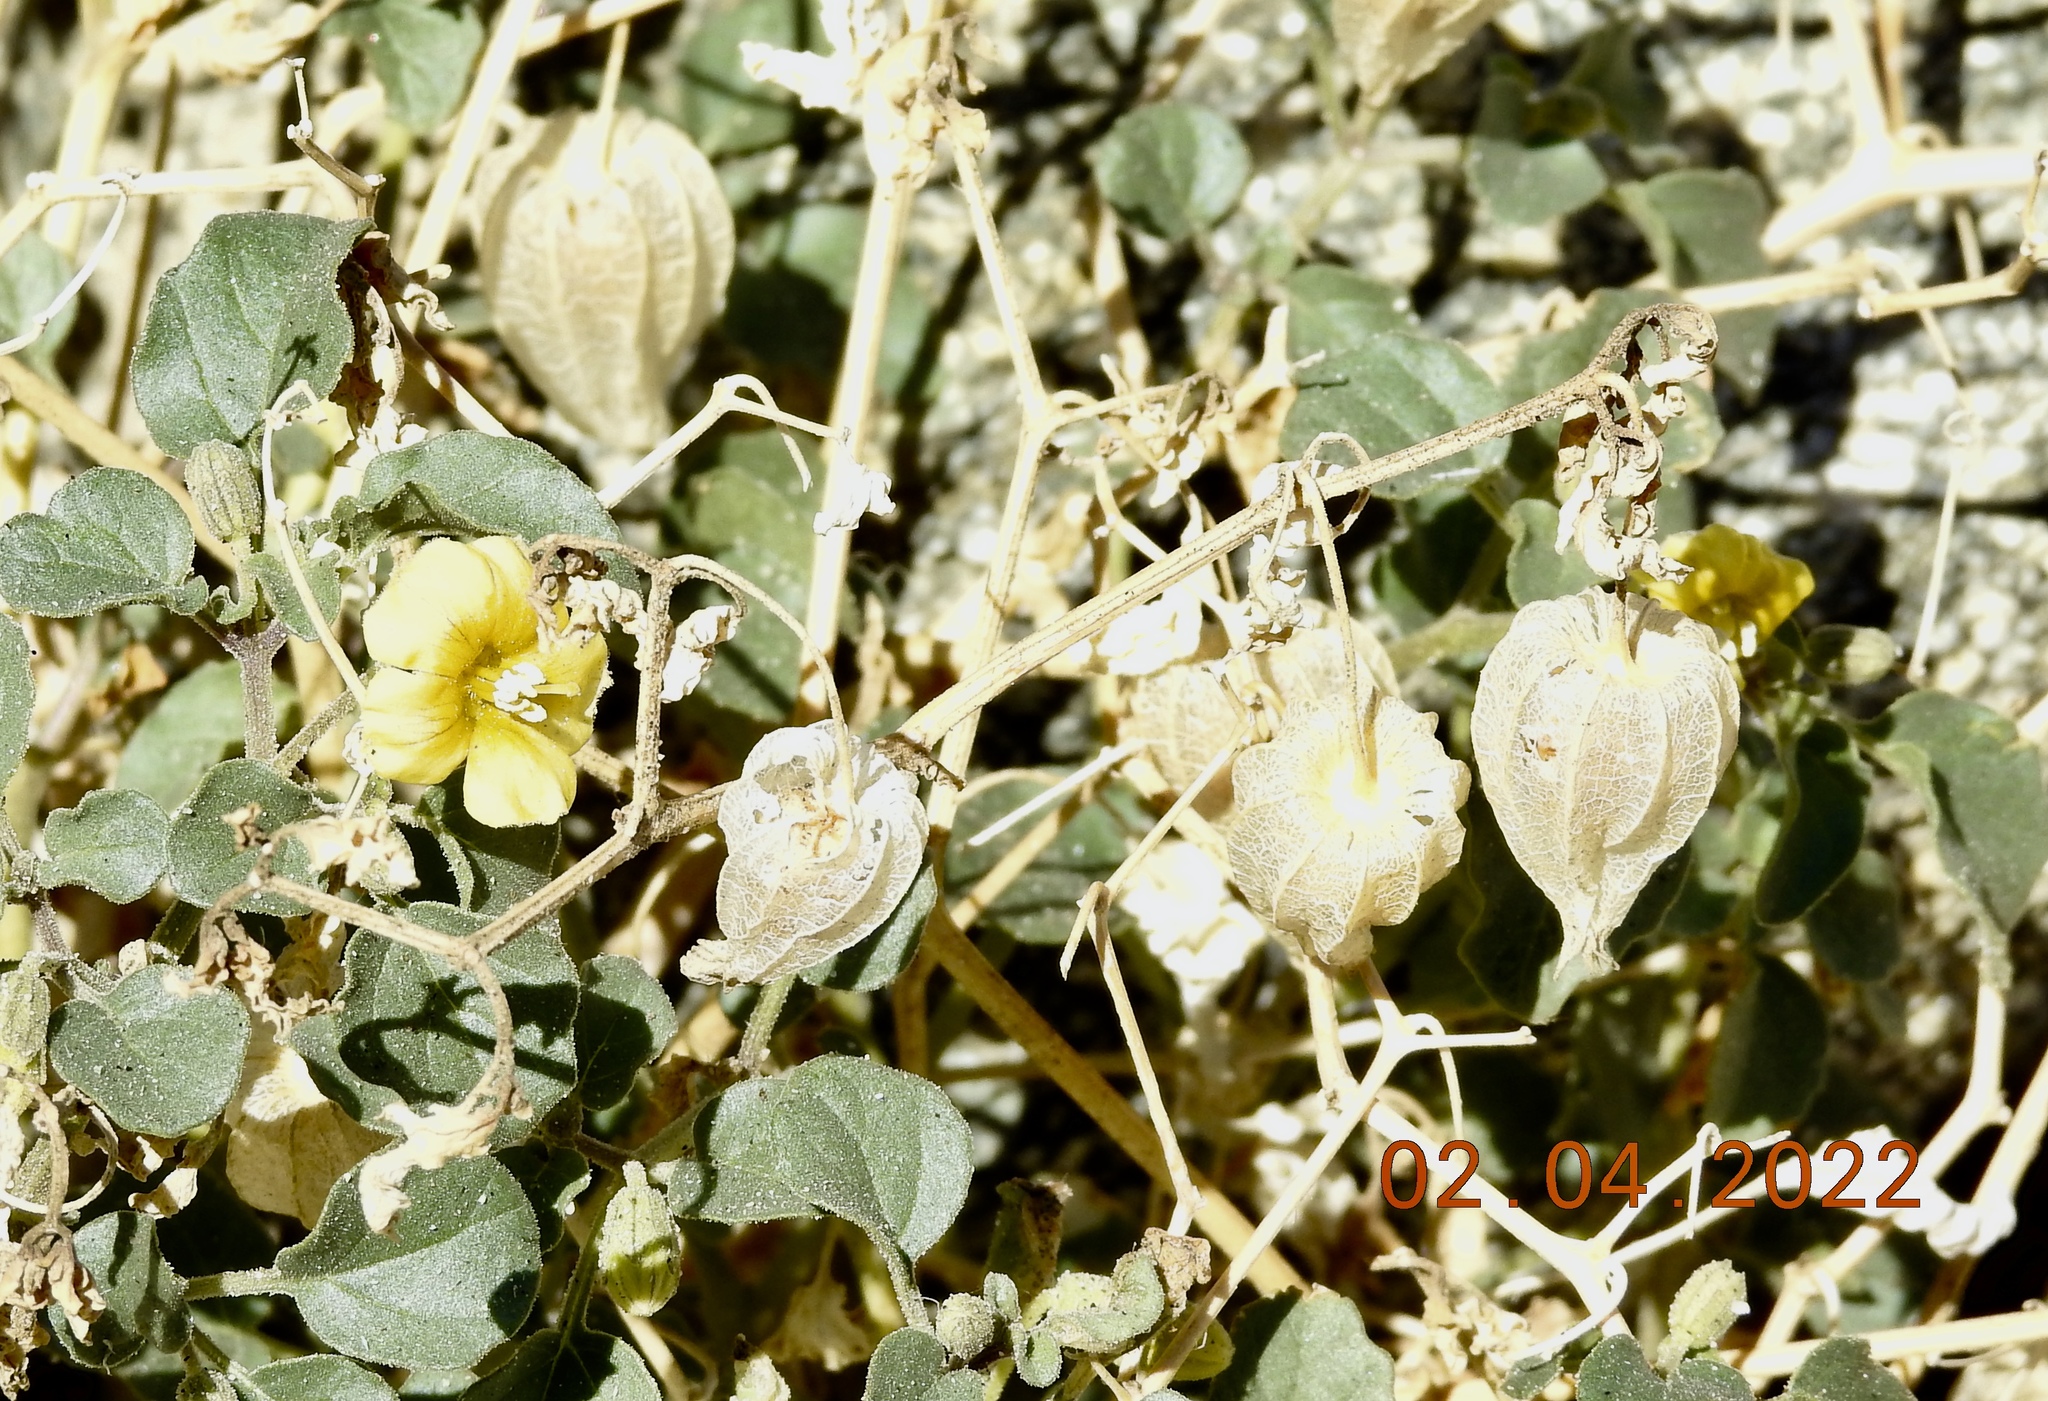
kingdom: Plantae
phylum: Tracheophyta
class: Magnoliopsida
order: Solanales
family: Solanaceae
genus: Physalis
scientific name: Physalis crassifolia
